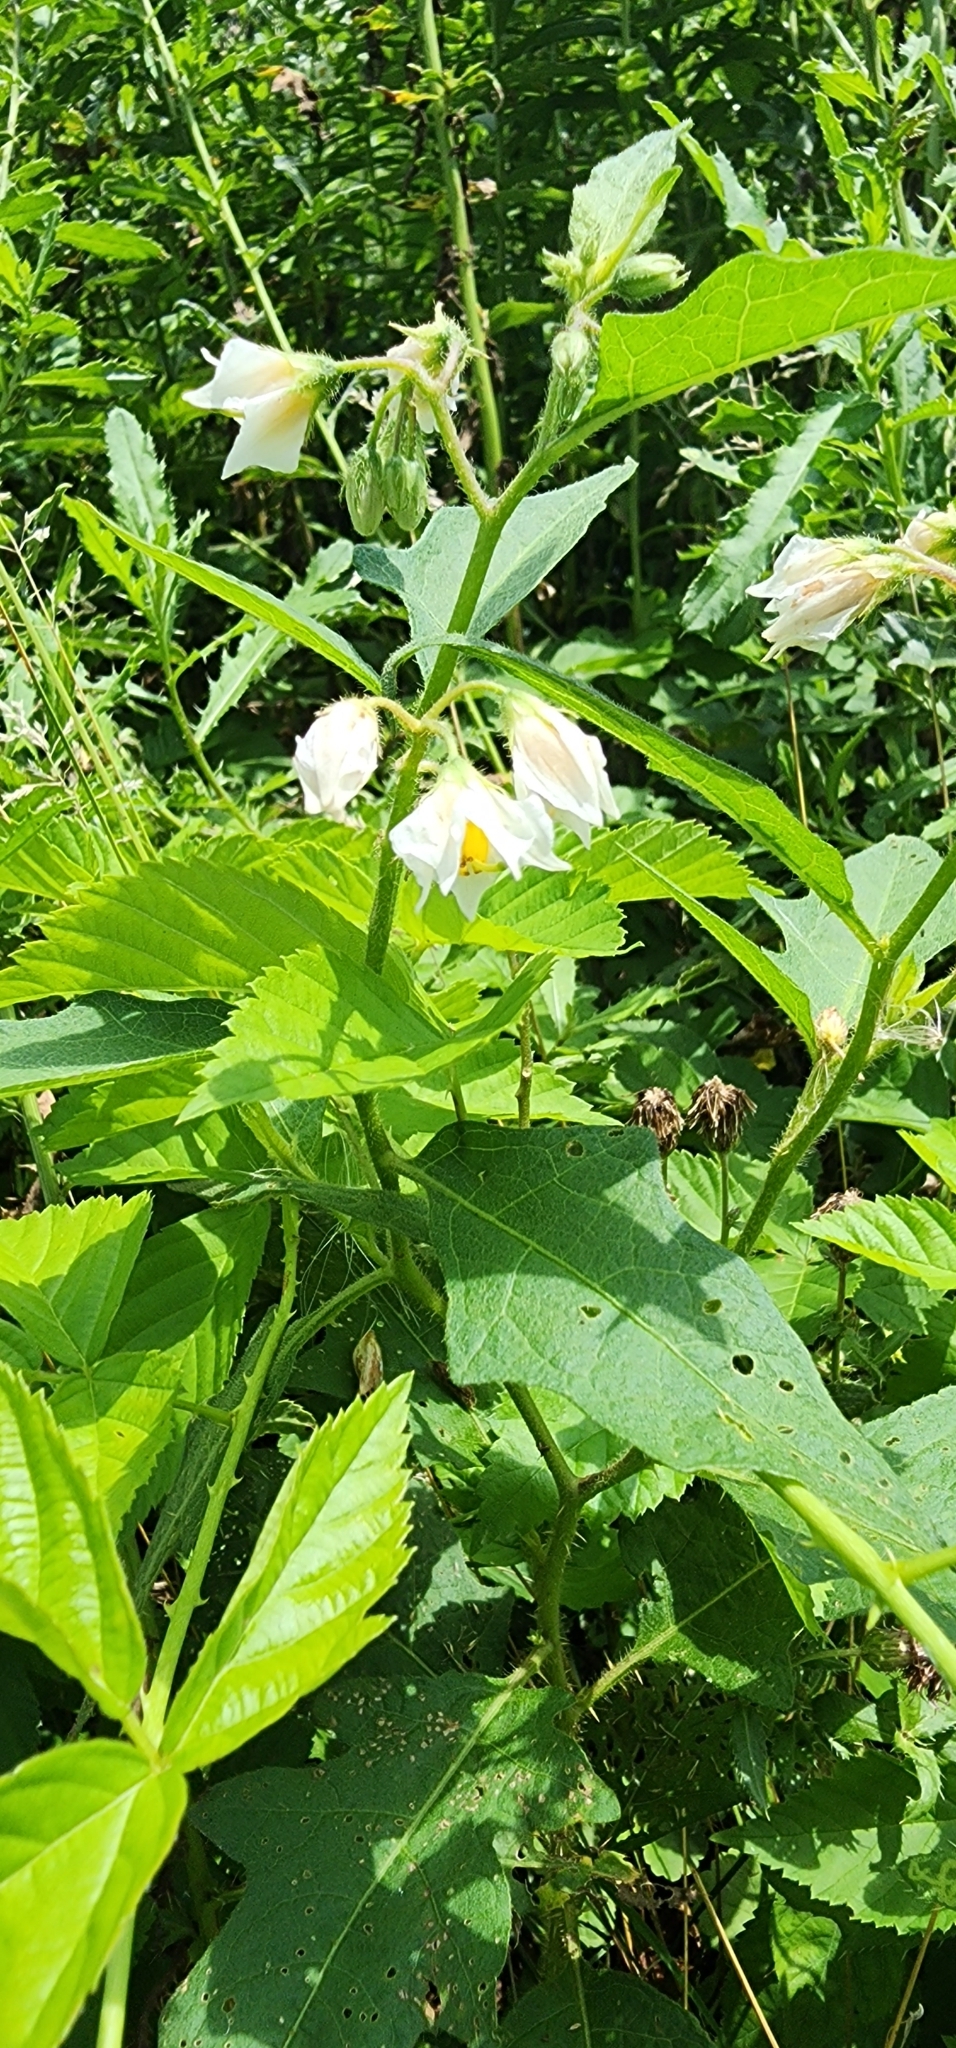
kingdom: Plantae
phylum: Tracheophyta
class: Magnoliopsida
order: Solanales
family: Solanaceae
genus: Solanum
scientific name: Solanum carolinense
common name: Horse-nettle
